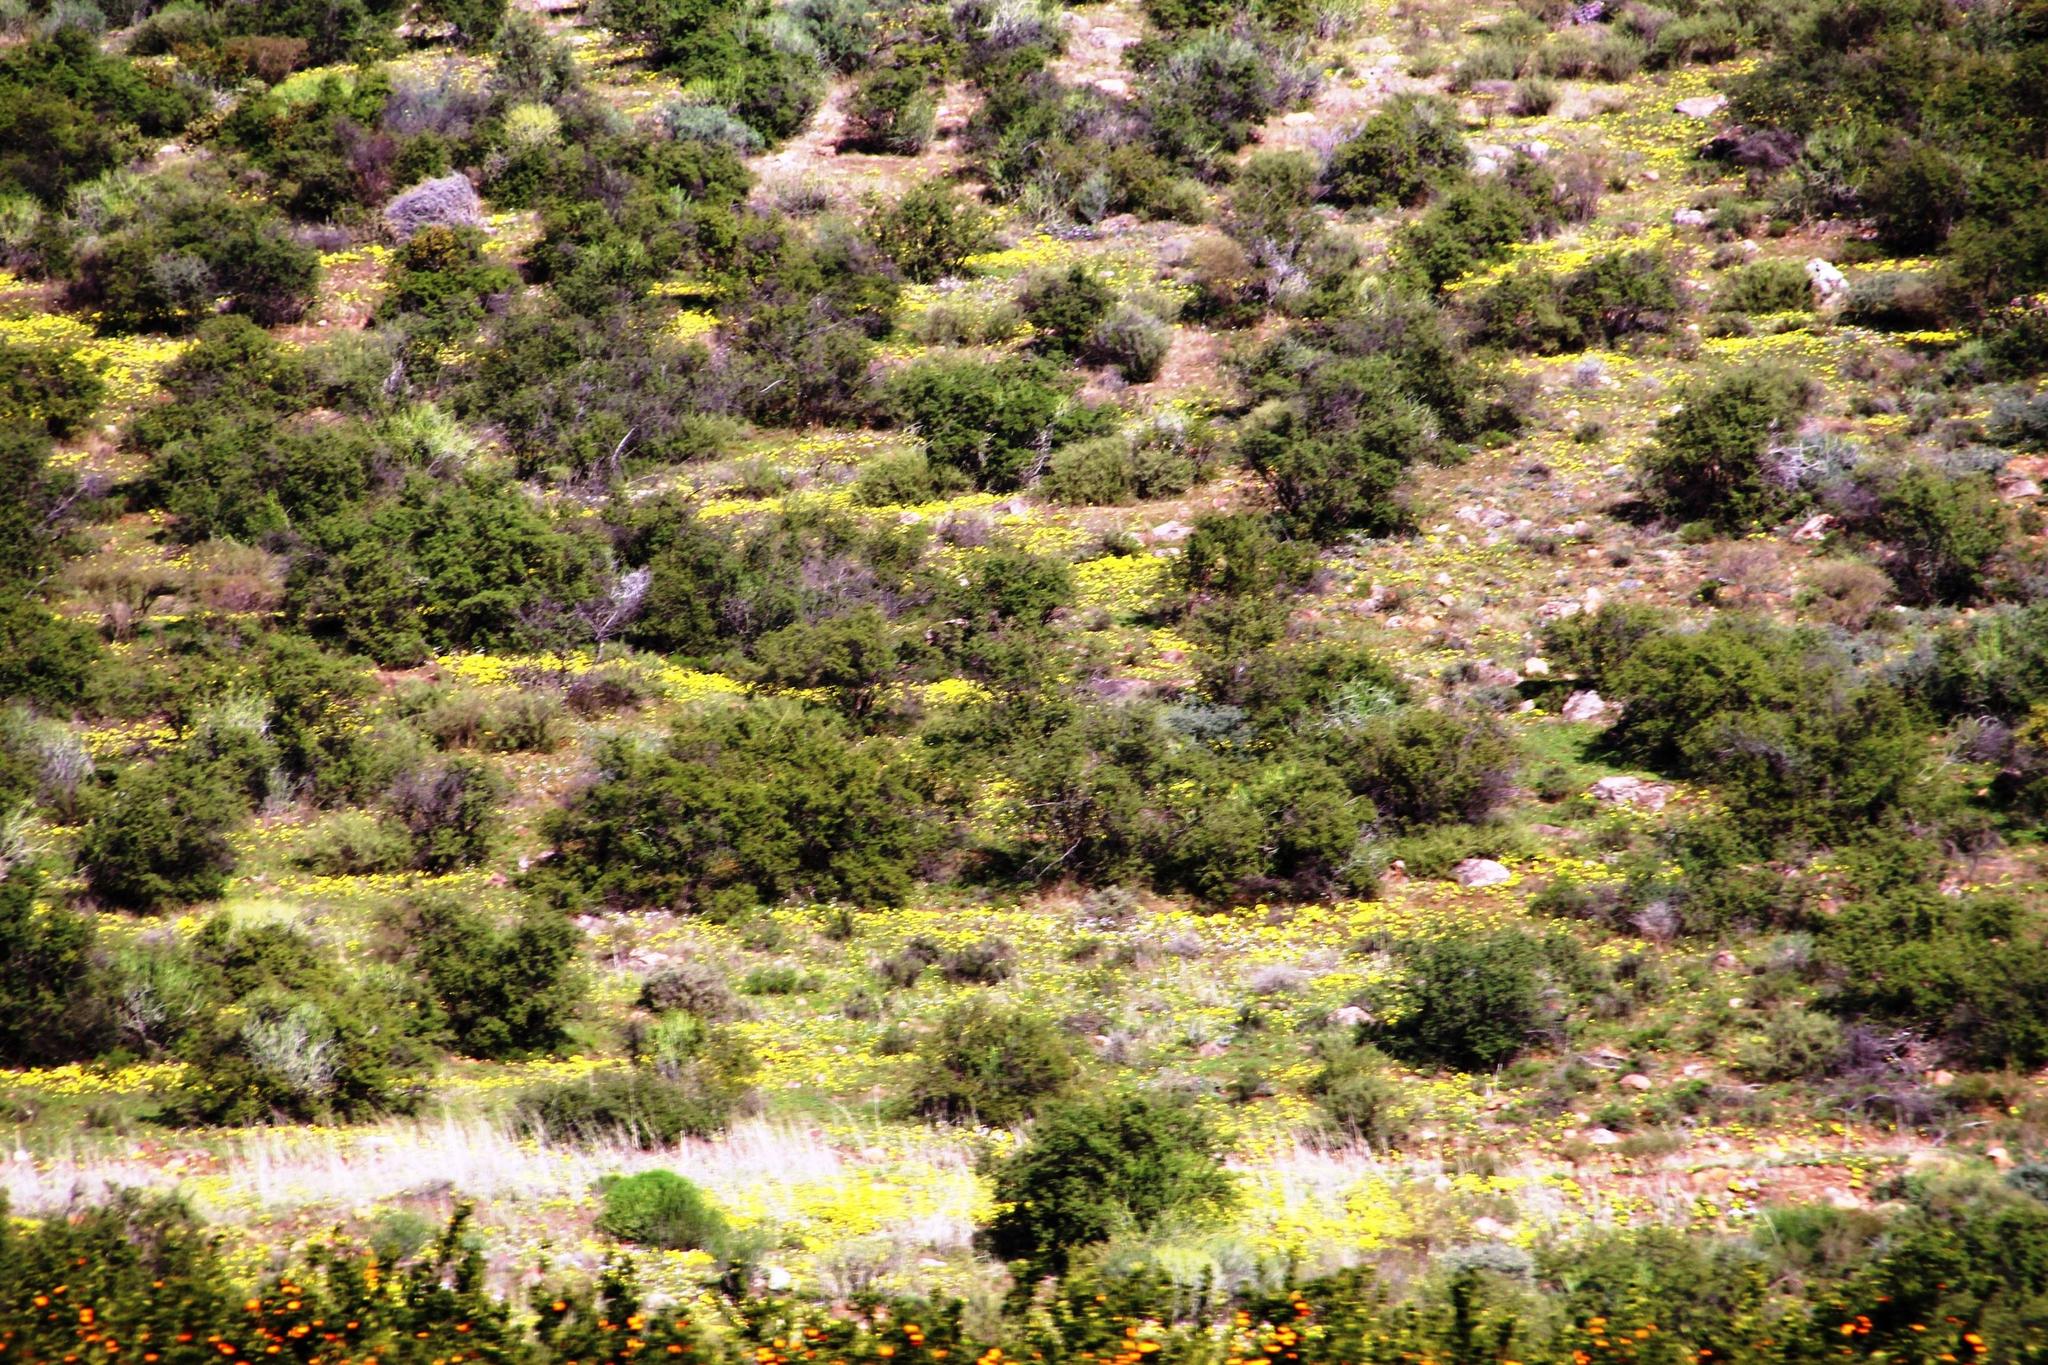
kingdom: Plantae
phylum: Tracheophyta
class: Magnoliopsida
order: Oxalidales
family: Oxalidaceae
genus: Oxalis
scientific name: Oxalis aurea
